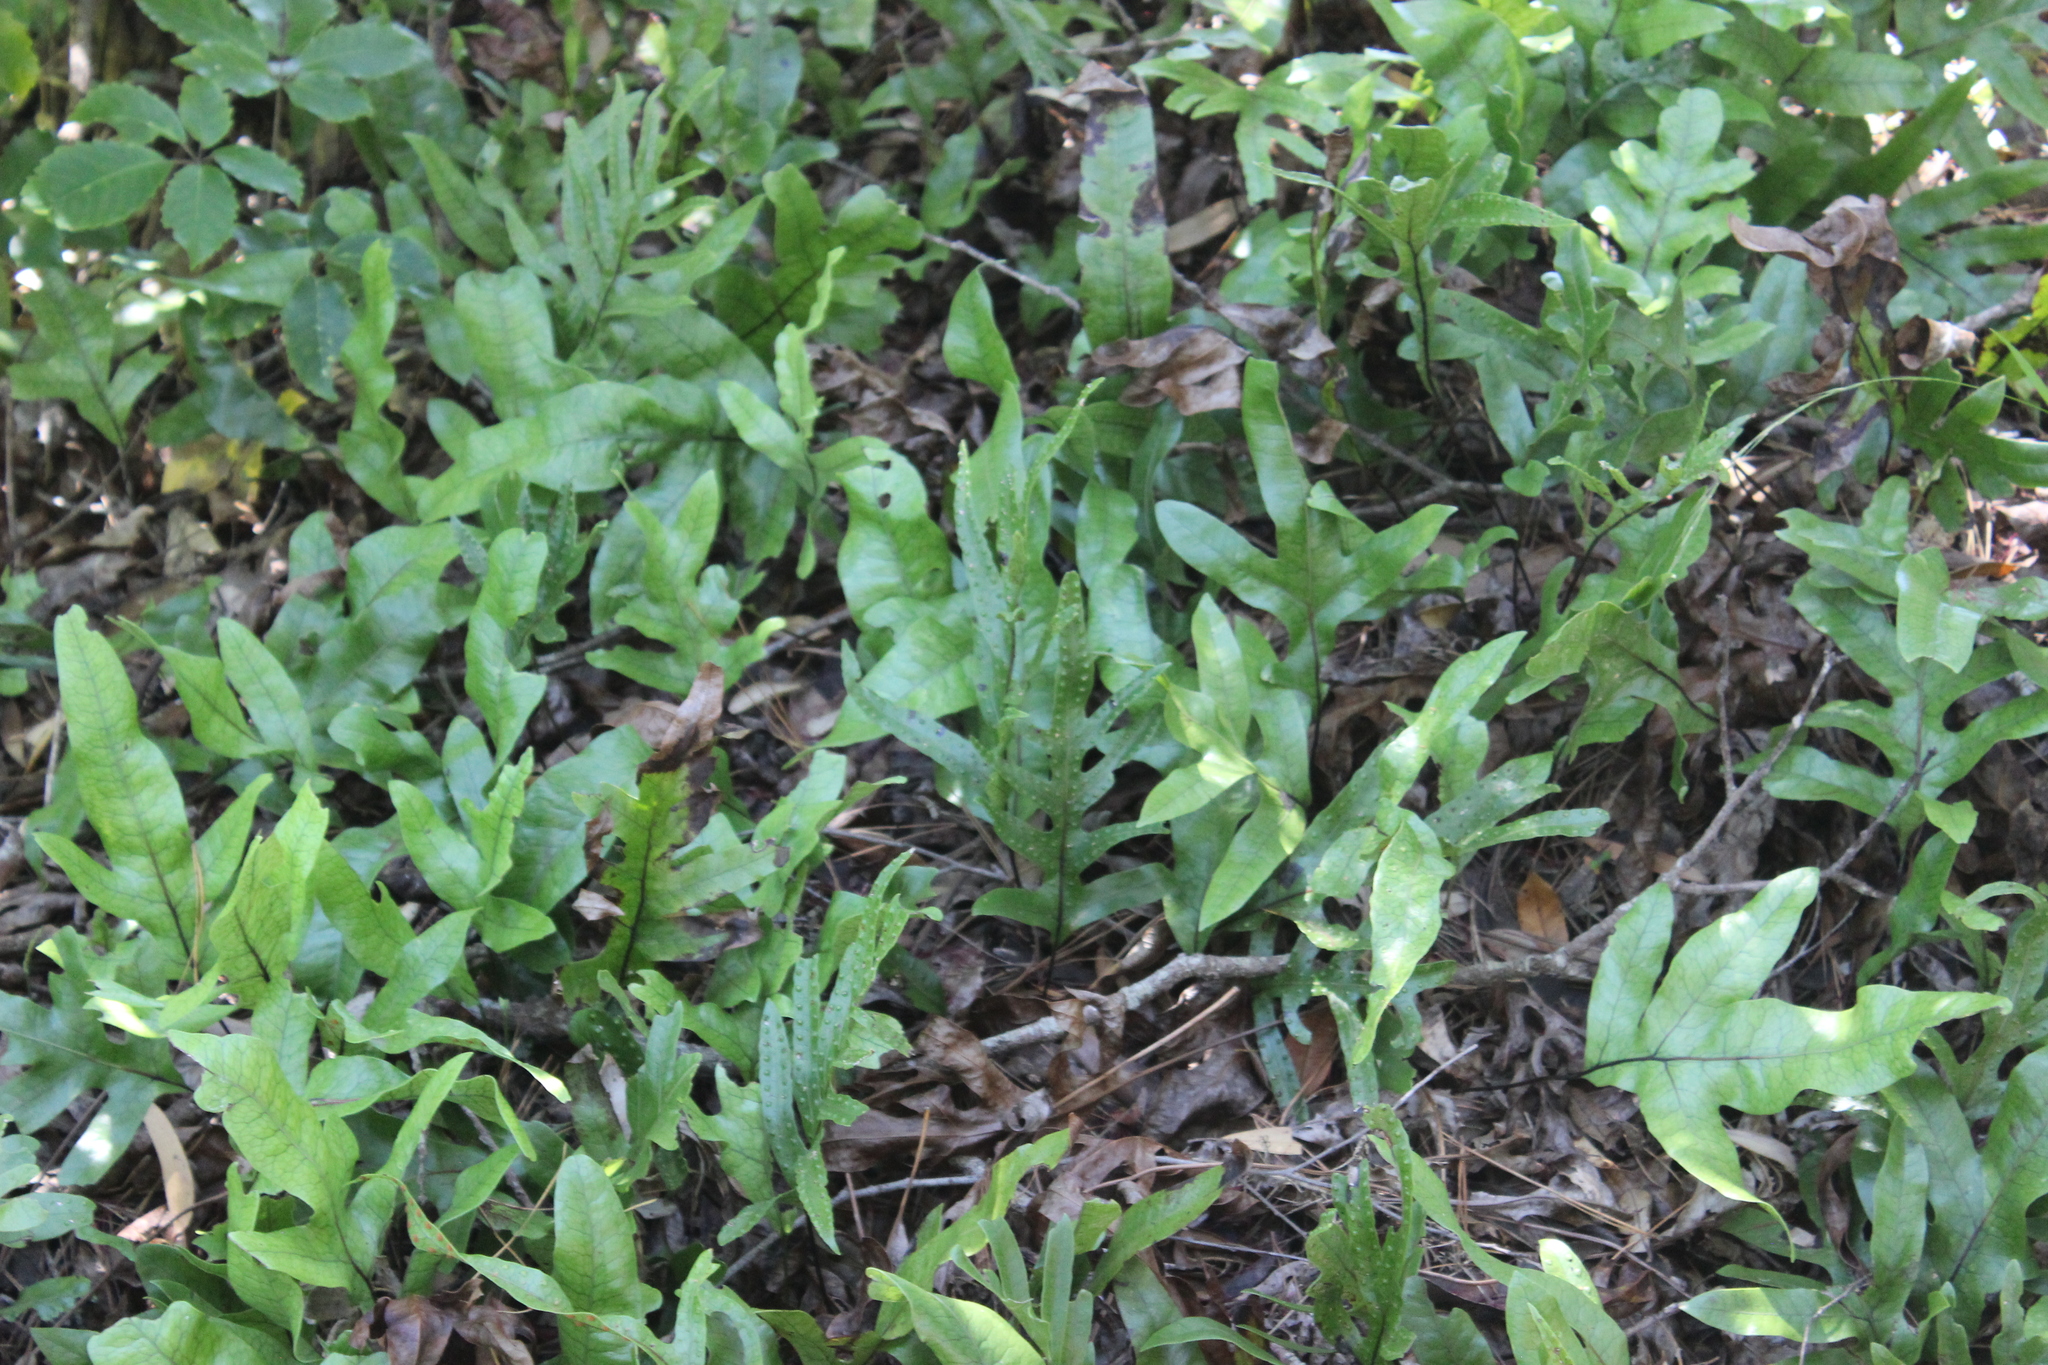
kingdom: Plantae
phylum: Tracheophyta
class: Polypodiopsida
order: Polypodiales
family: Polypodiaceae
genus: Lecanopteris
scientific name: Lecanopteris pustulata
